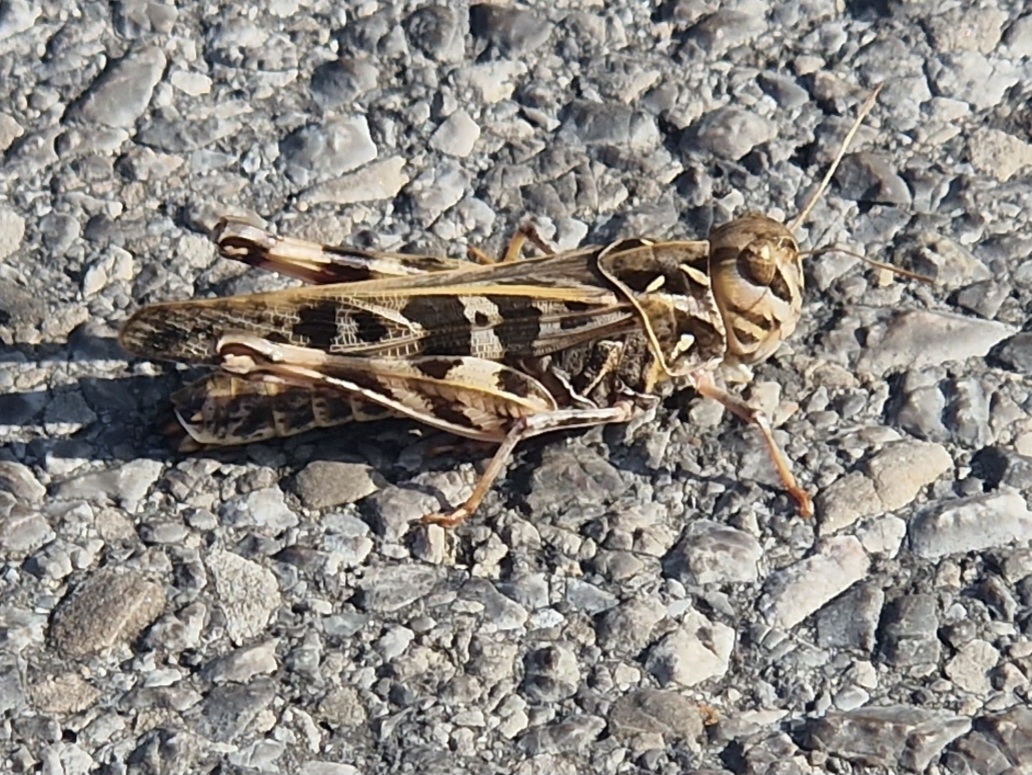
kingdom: Animalia
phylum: Arthropoda
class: Insecta
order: Orthoptera
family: Acrididae
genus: Oedaleus
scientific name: Oedaleus decorus
